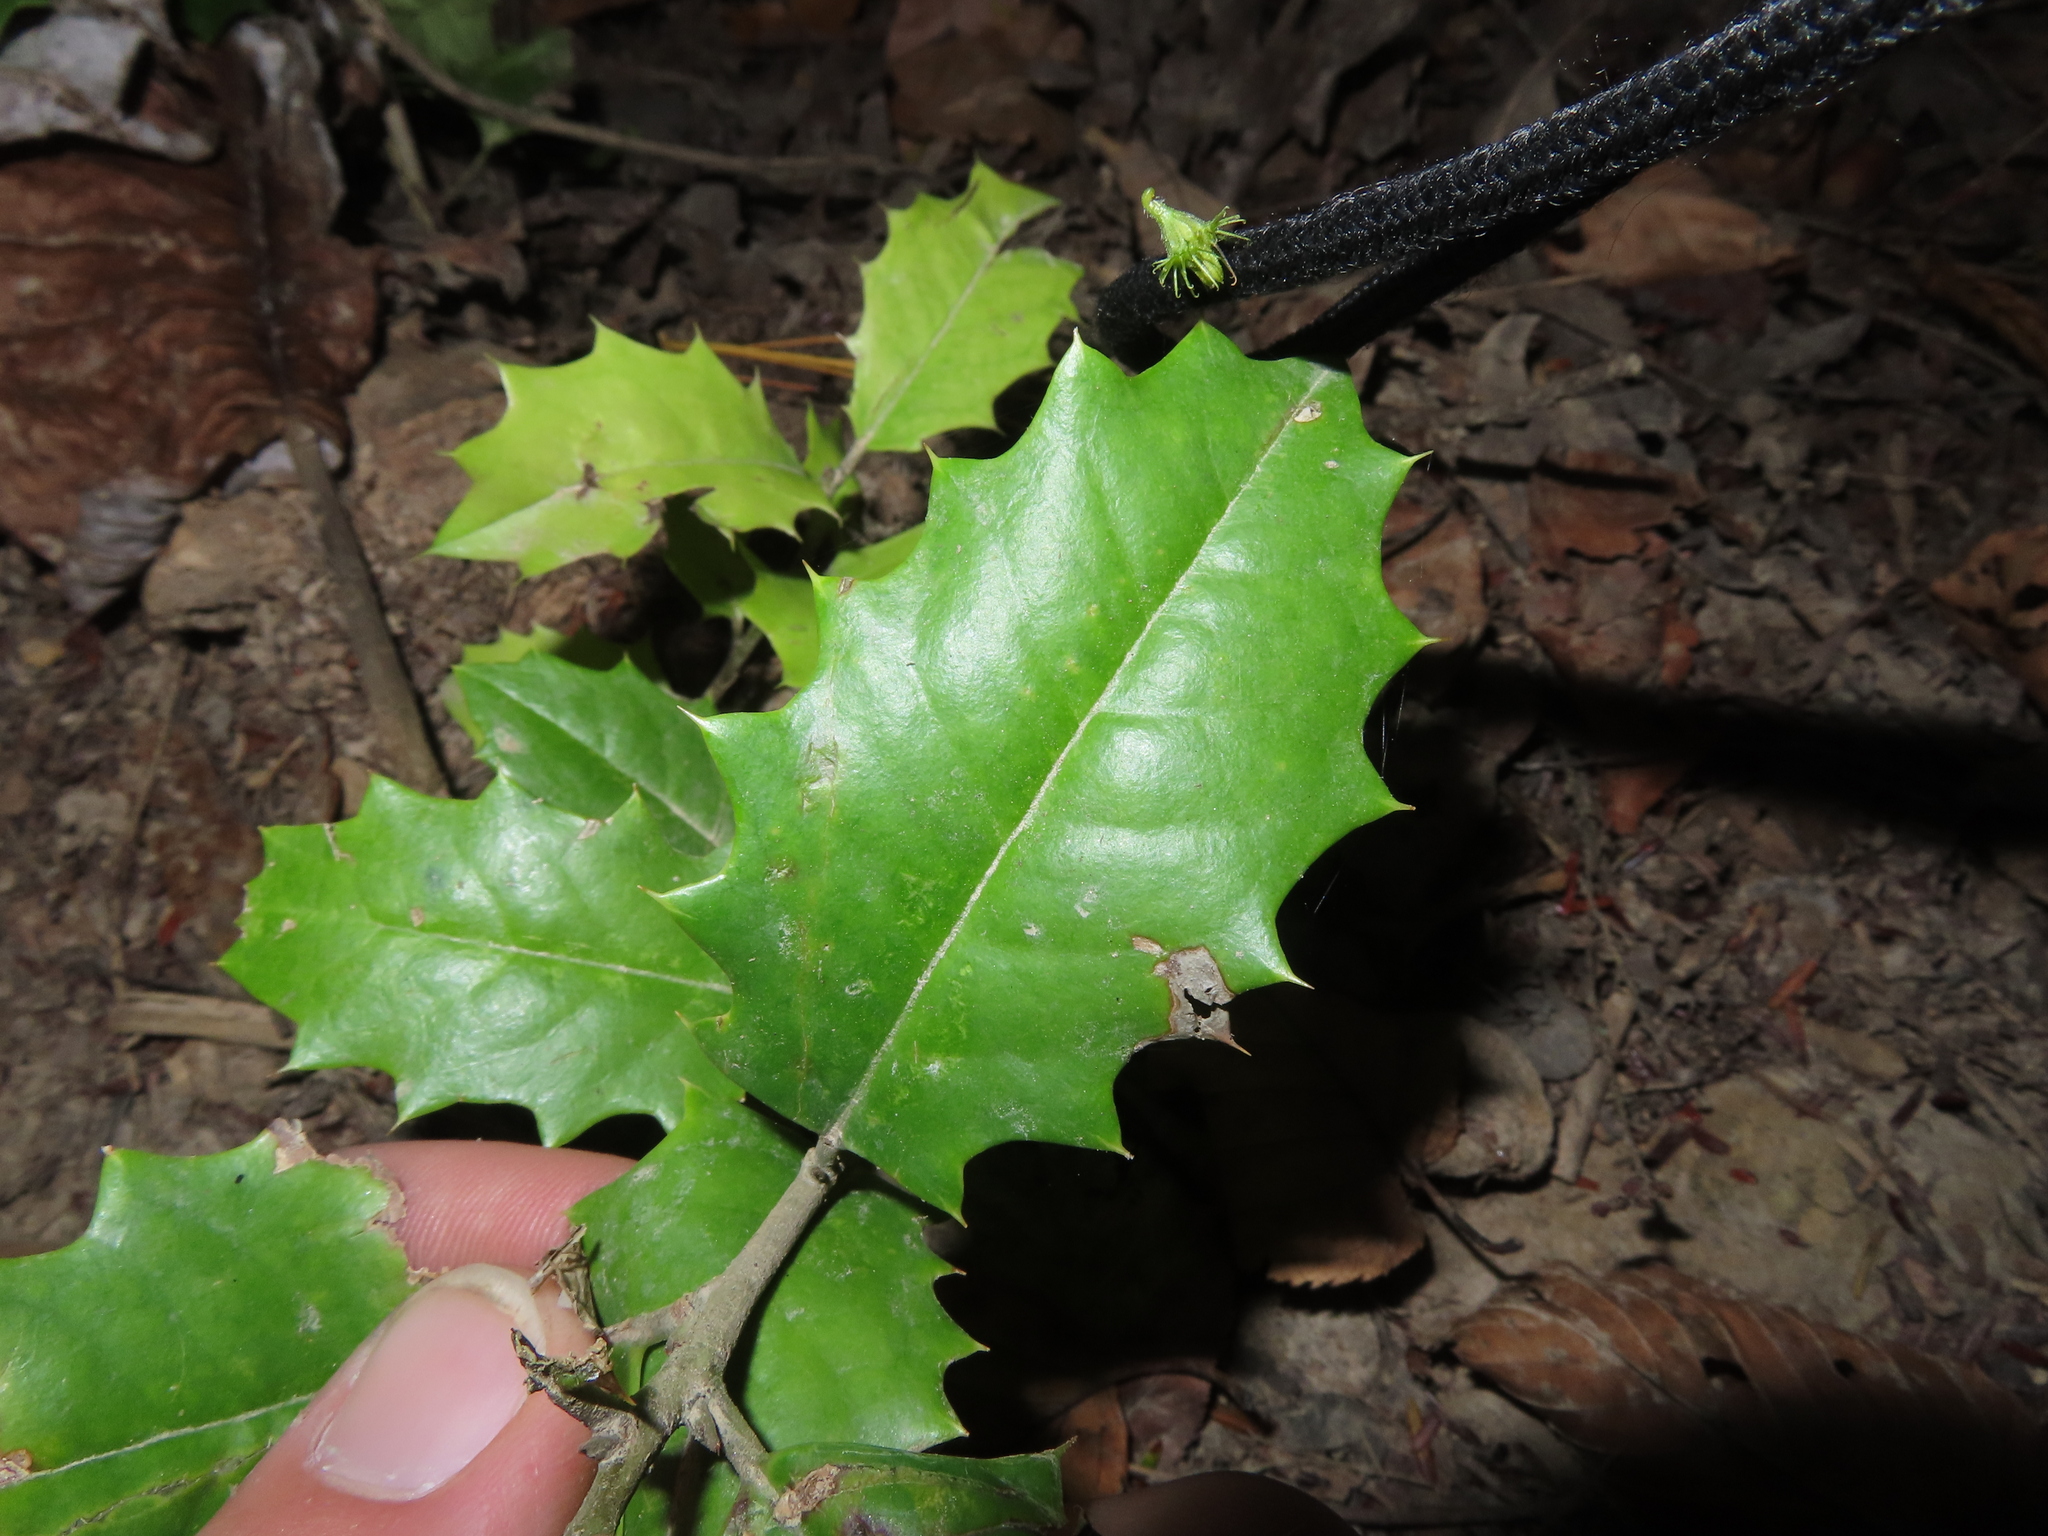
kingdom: Plantae
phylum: Tracheophyta
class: Magnoliopsida
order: Aquifoliales
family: Aquifoliaceae
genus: Ilex
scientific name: Ilex opaca
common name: American holly
